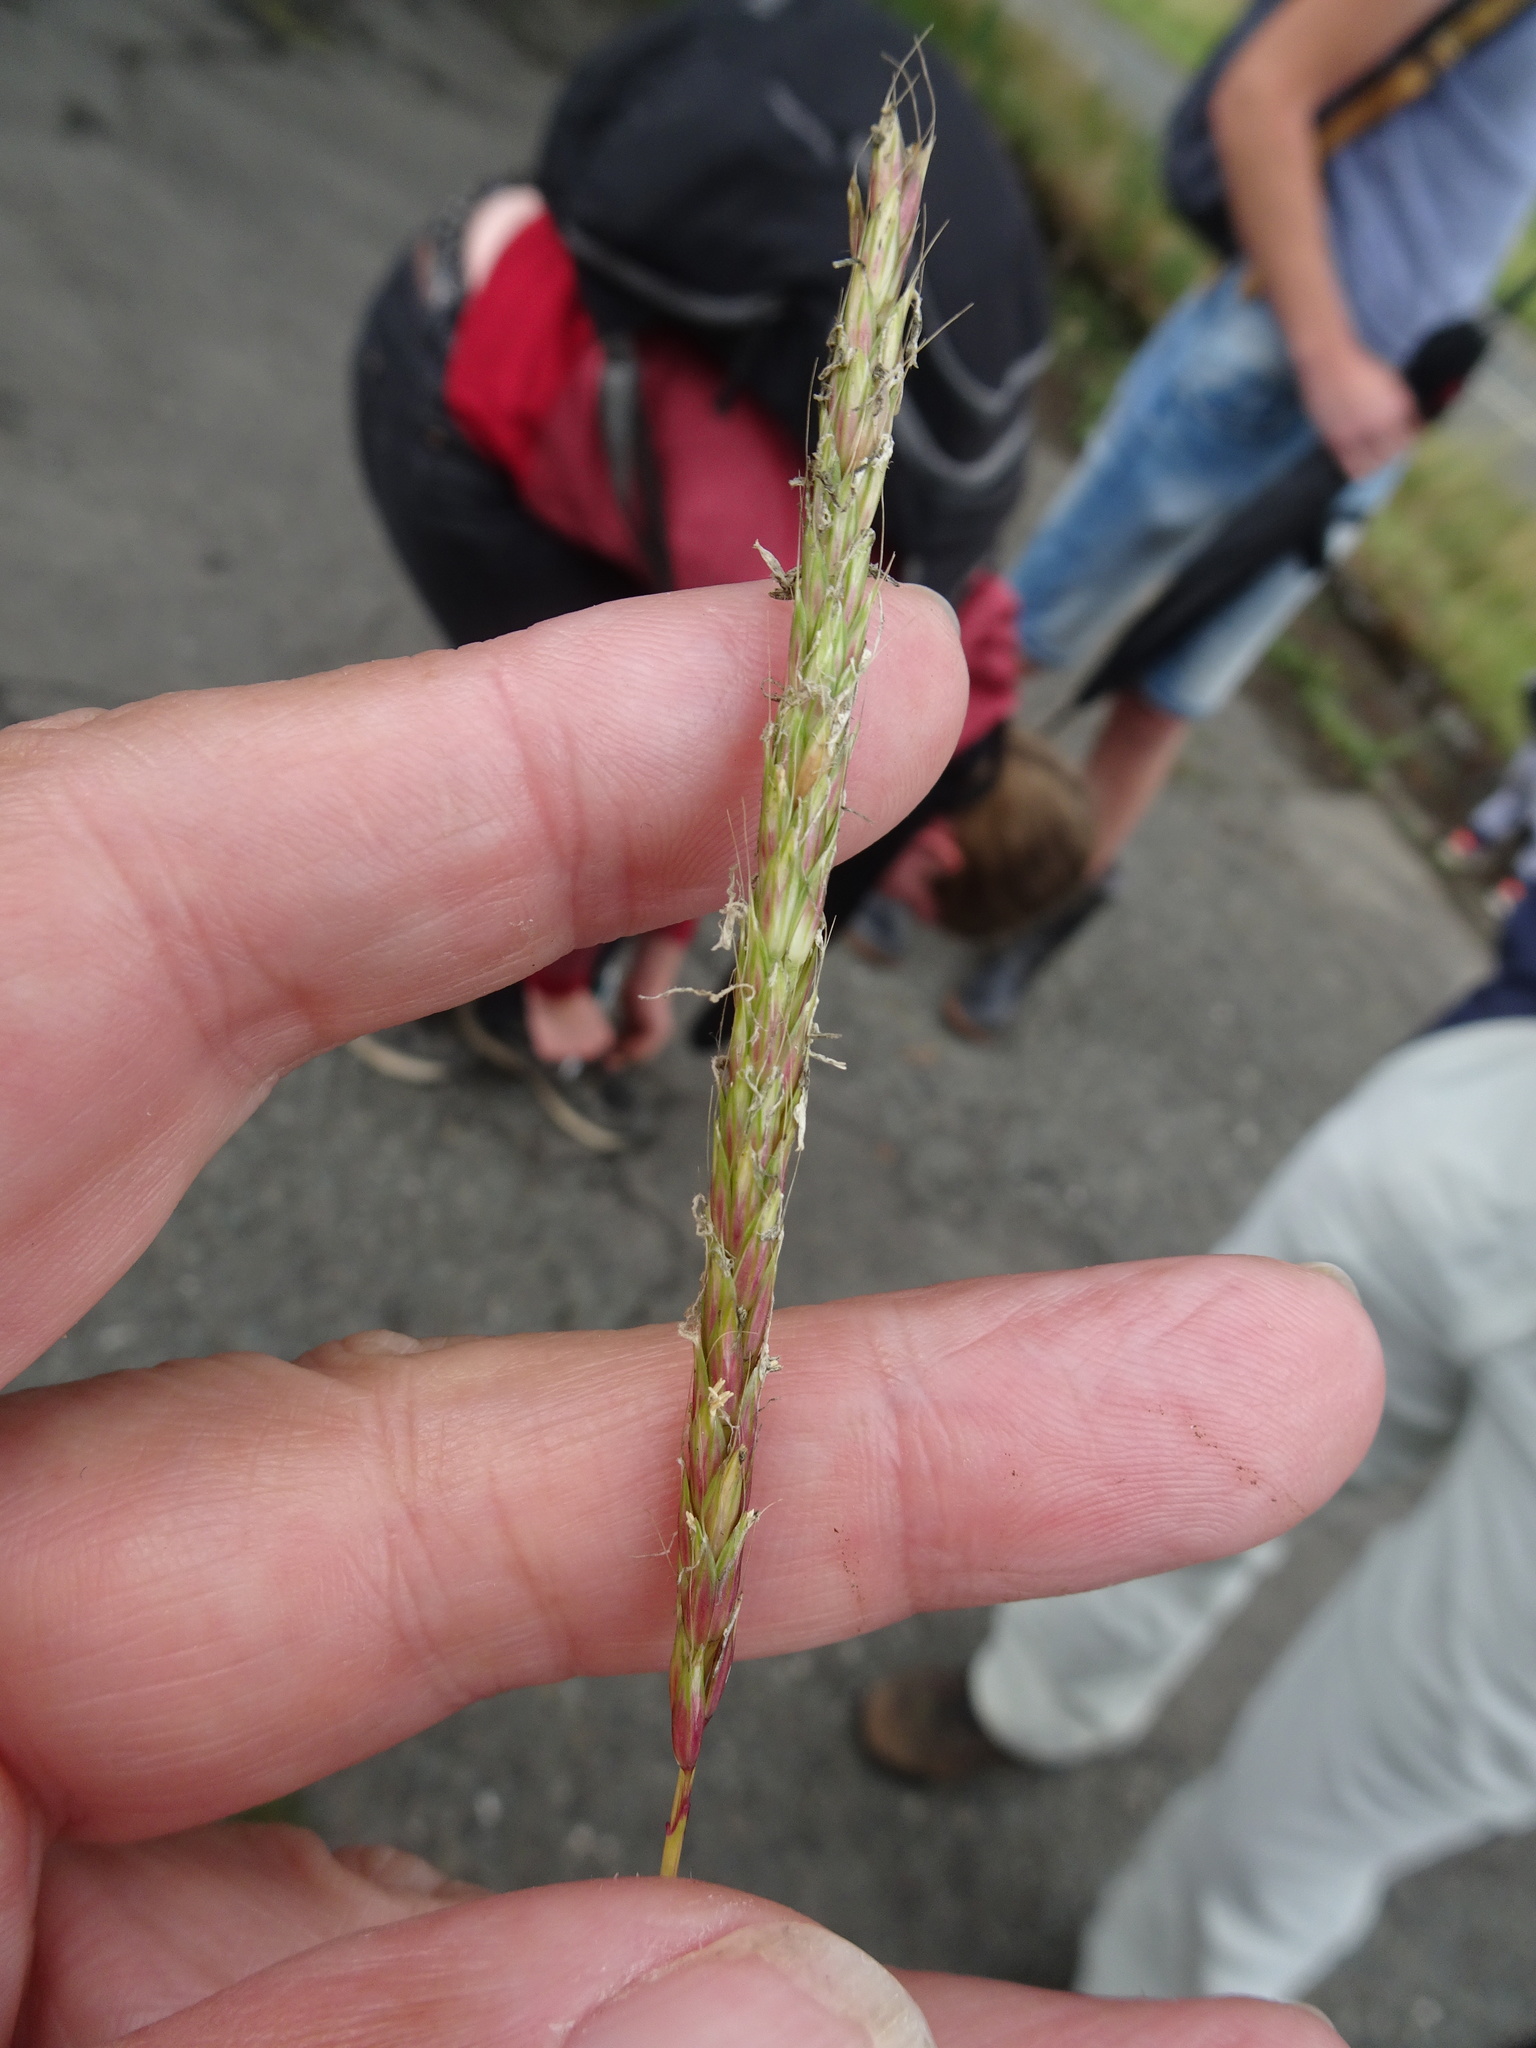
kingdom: Plantae
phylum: Tracheophyta
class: Liliopsida
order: Poales
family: Poaceae
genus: Alopecurus
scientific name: Alopecurus myosuroides
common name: Black-grass
